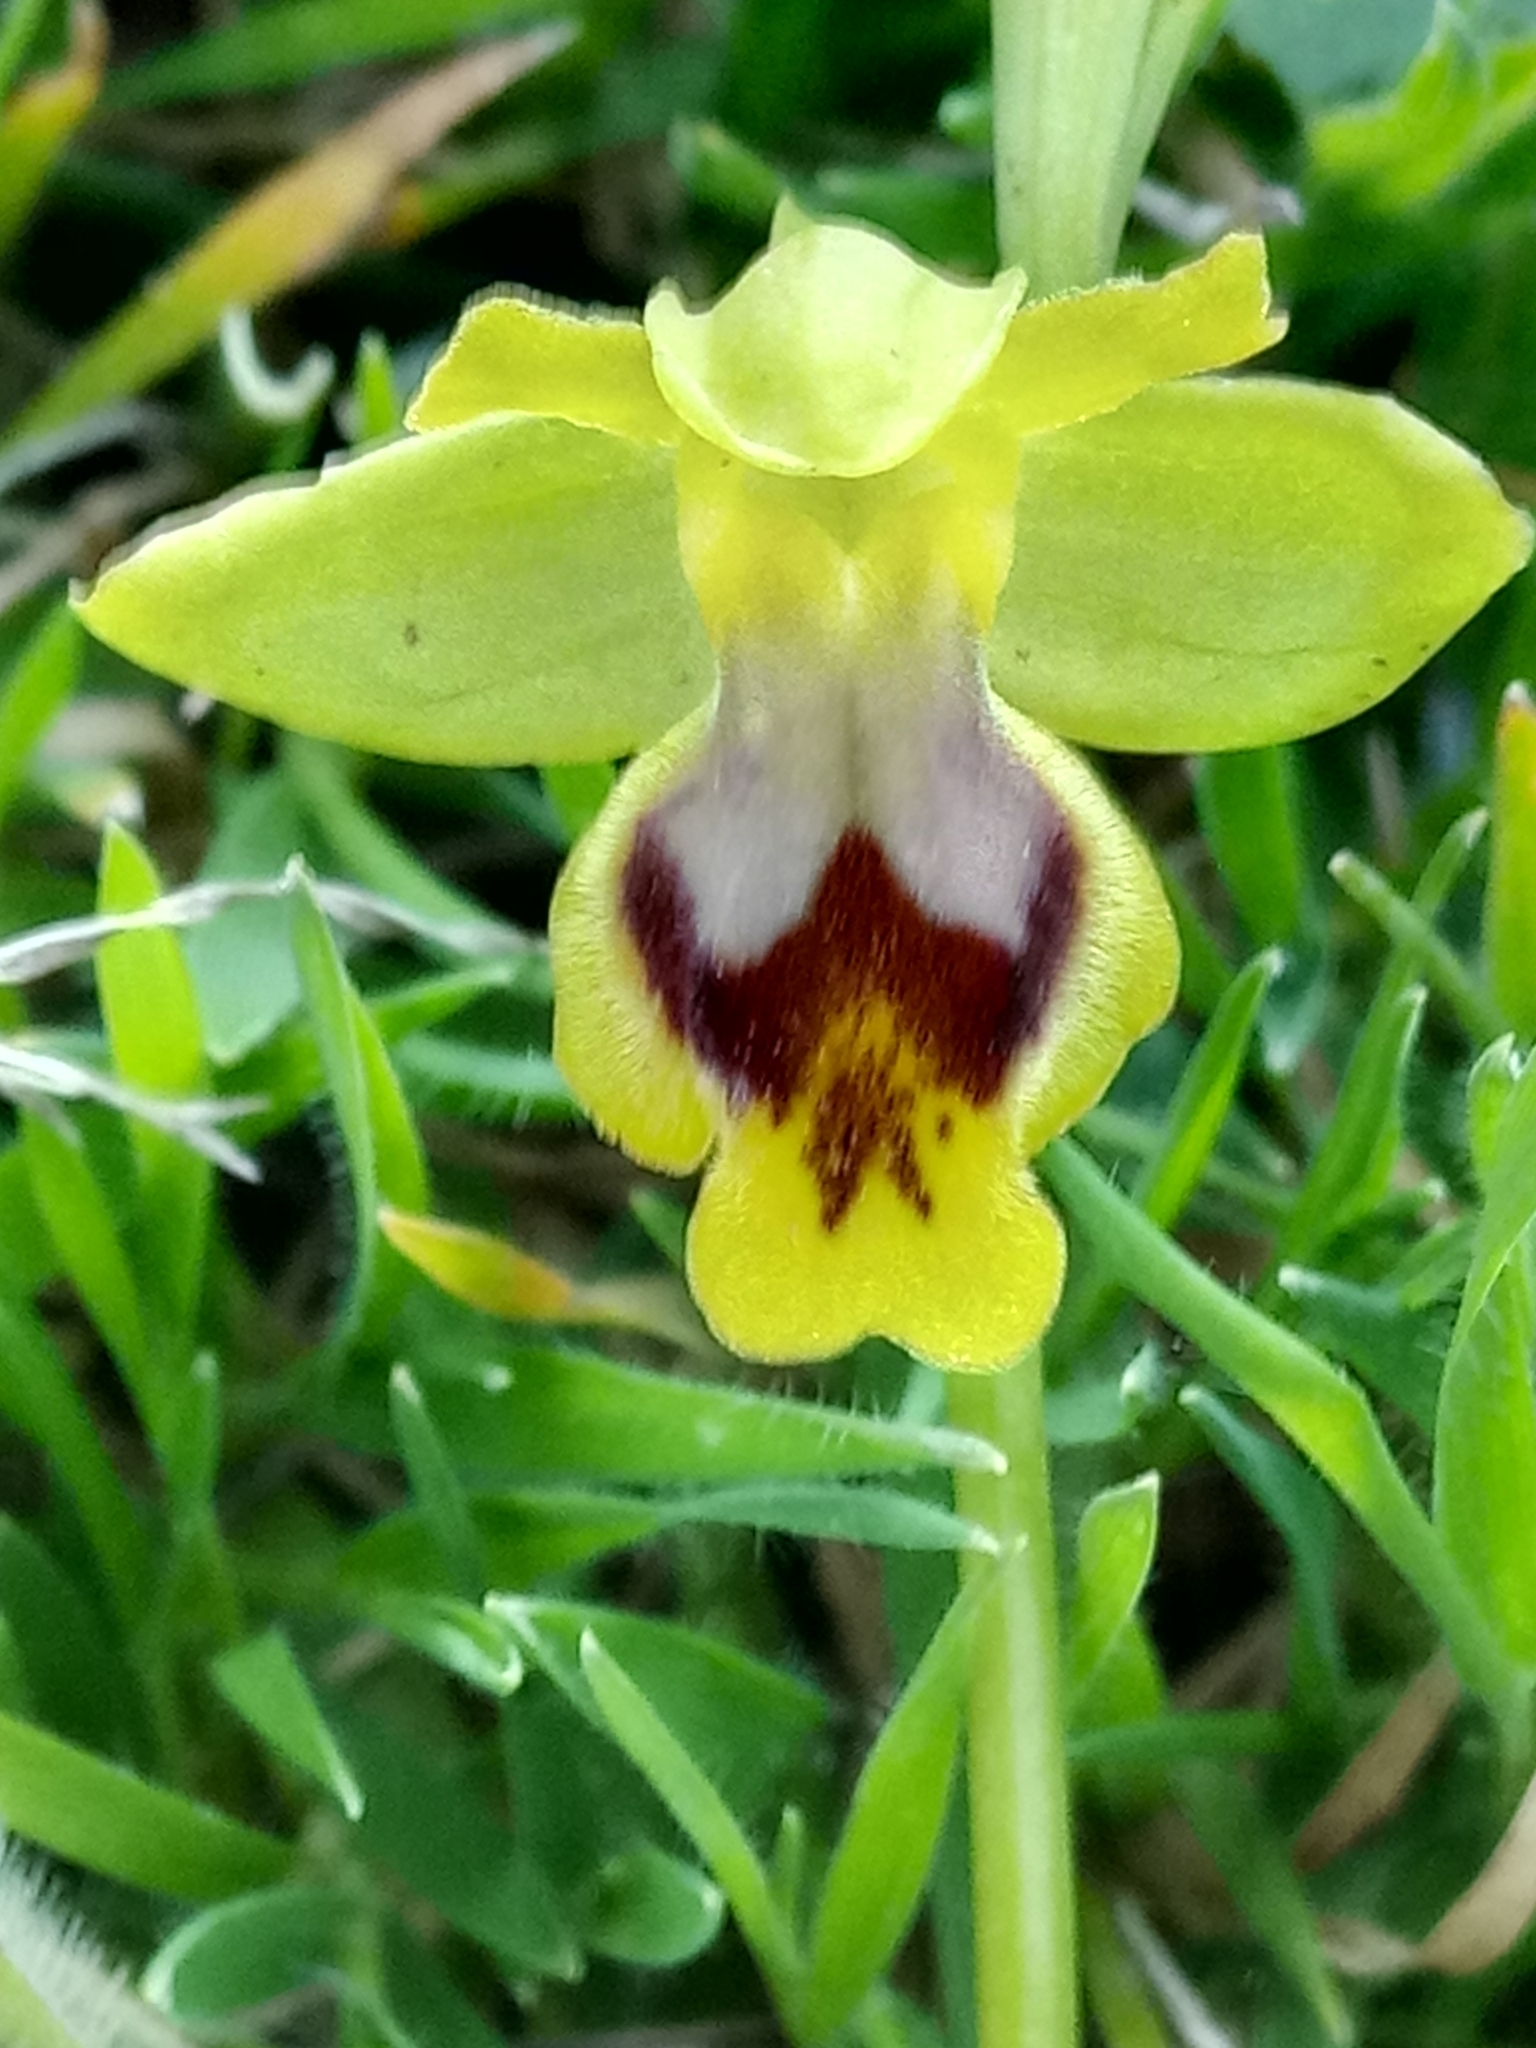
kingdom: Plantae
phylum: Tracheophyta
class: Liliopsida
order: Asparagales
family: Orchidaceae
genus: Ophrys
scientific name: Ophrys battandieri
